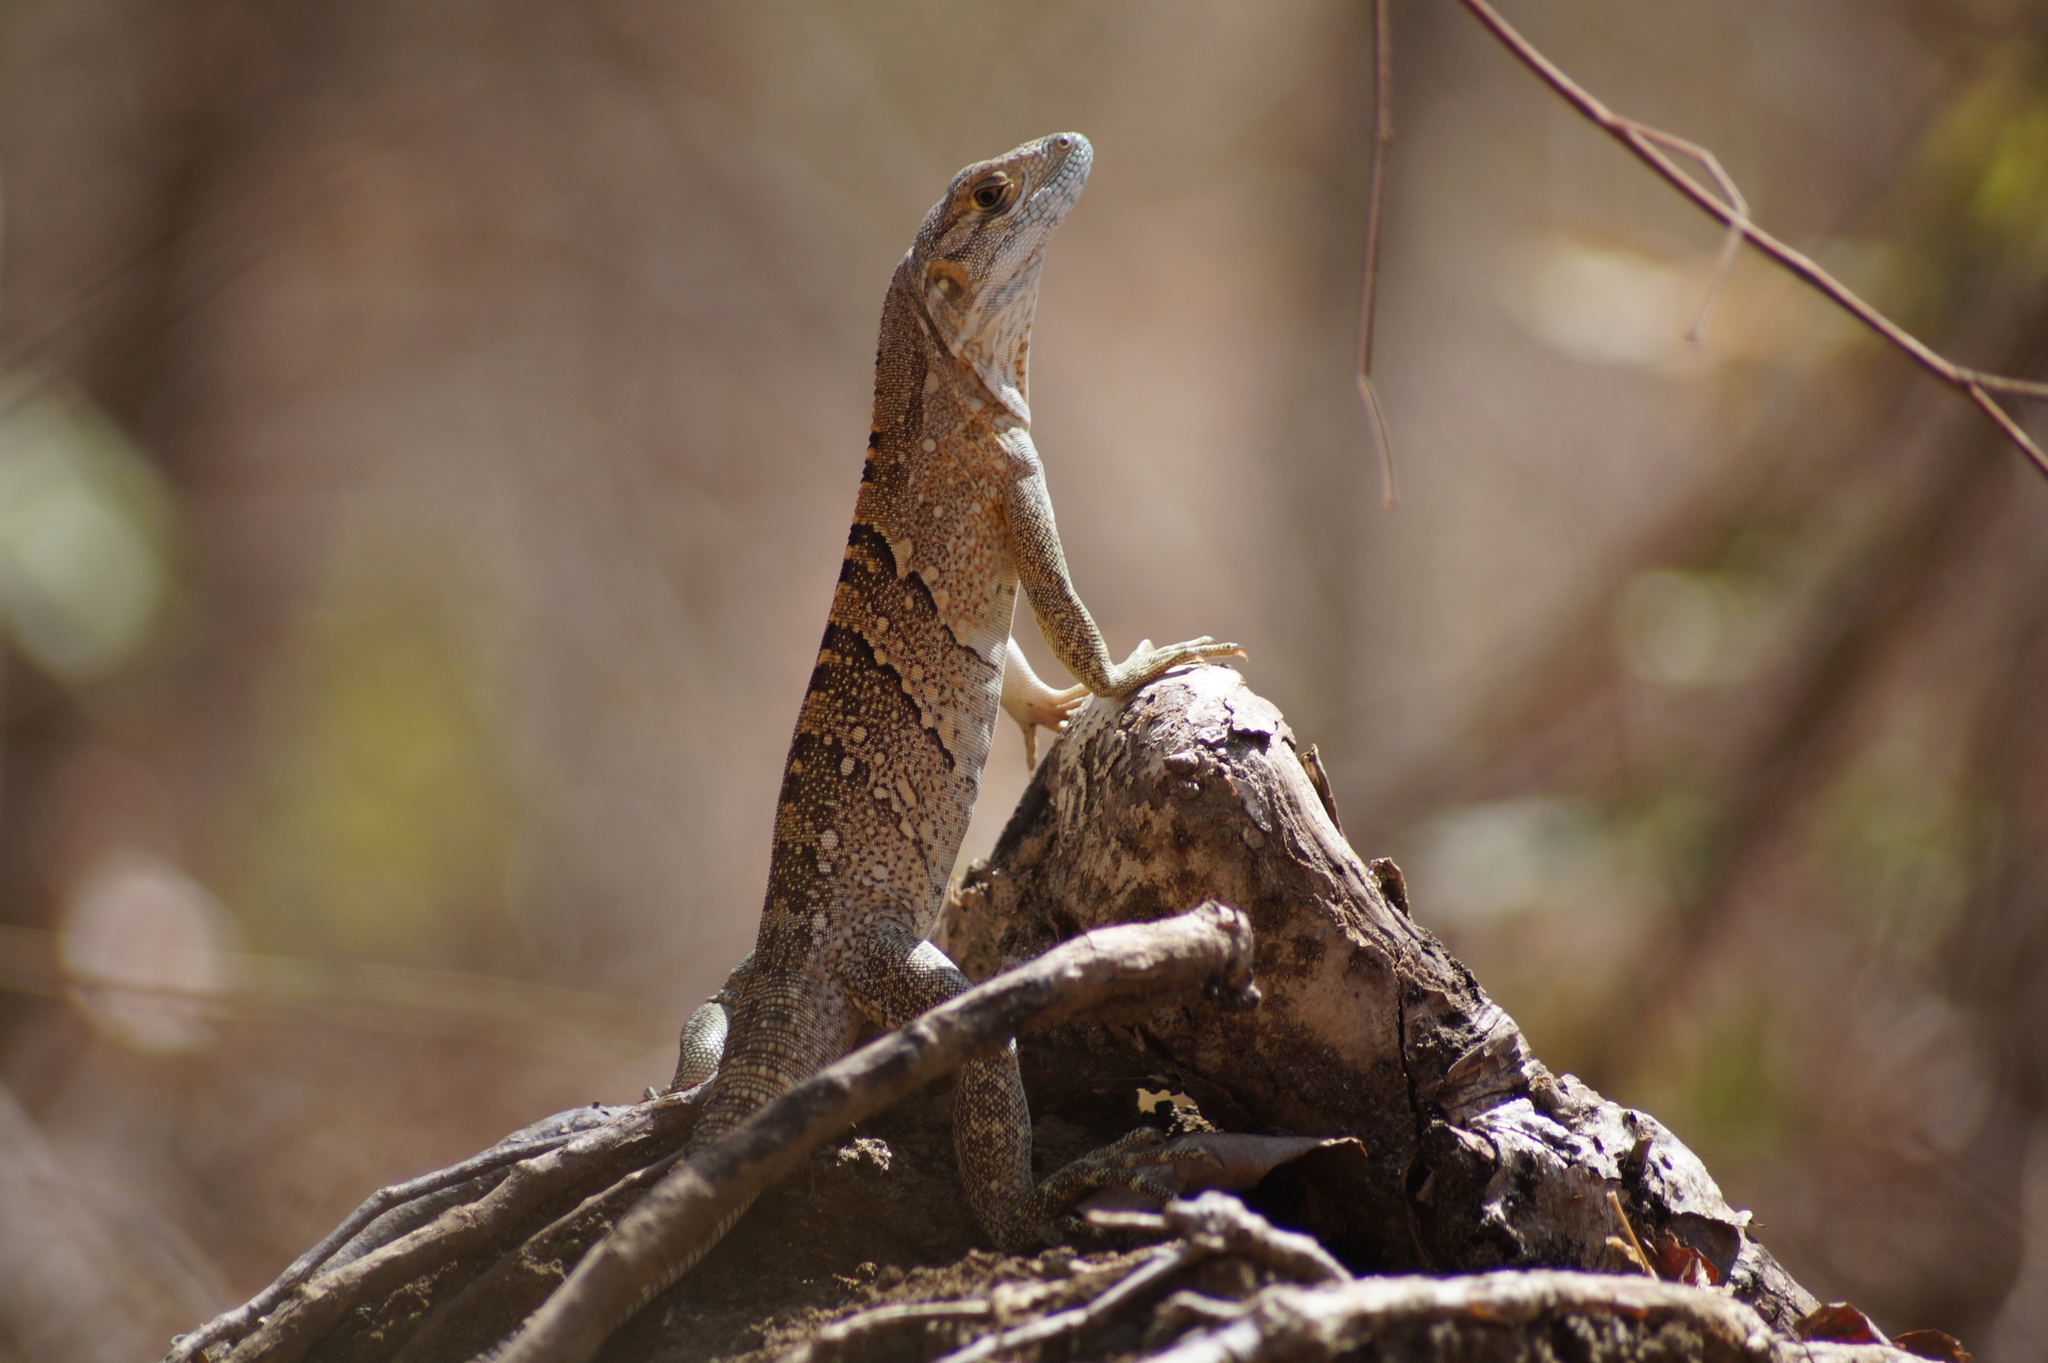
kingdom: Animalia
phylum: Chordata
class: Squamata
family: Iguanidae
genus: Ctenosaura
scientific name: Ctenosaura similis
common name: Black spiny-tailed iguana
